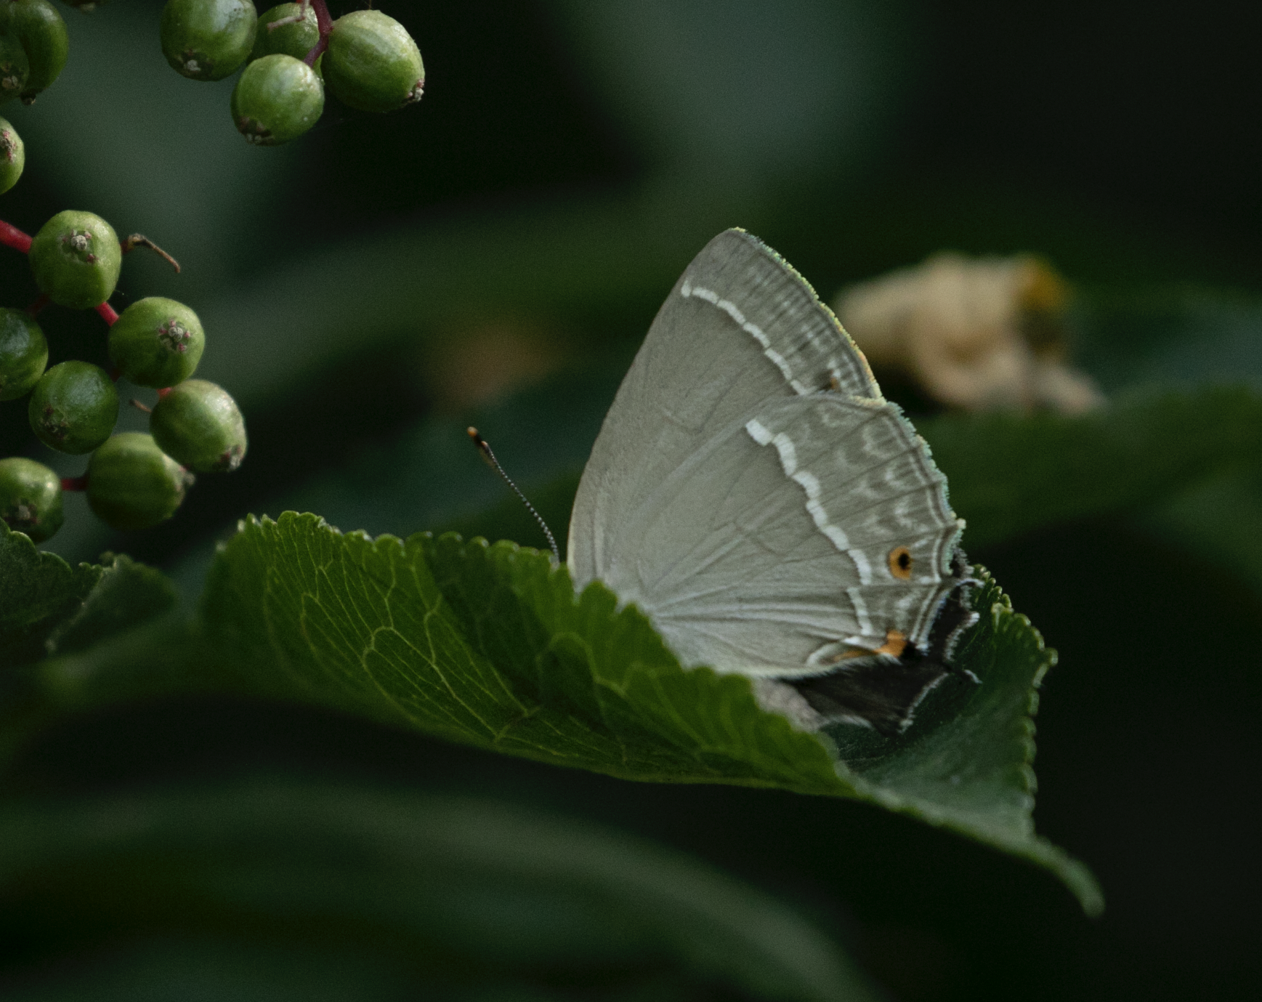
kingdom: Animalia
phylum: Arthropoda
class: Insecta
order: Lepidoptera
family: Lycaenidae
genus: Quercusia
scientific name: Quercusia quercus
